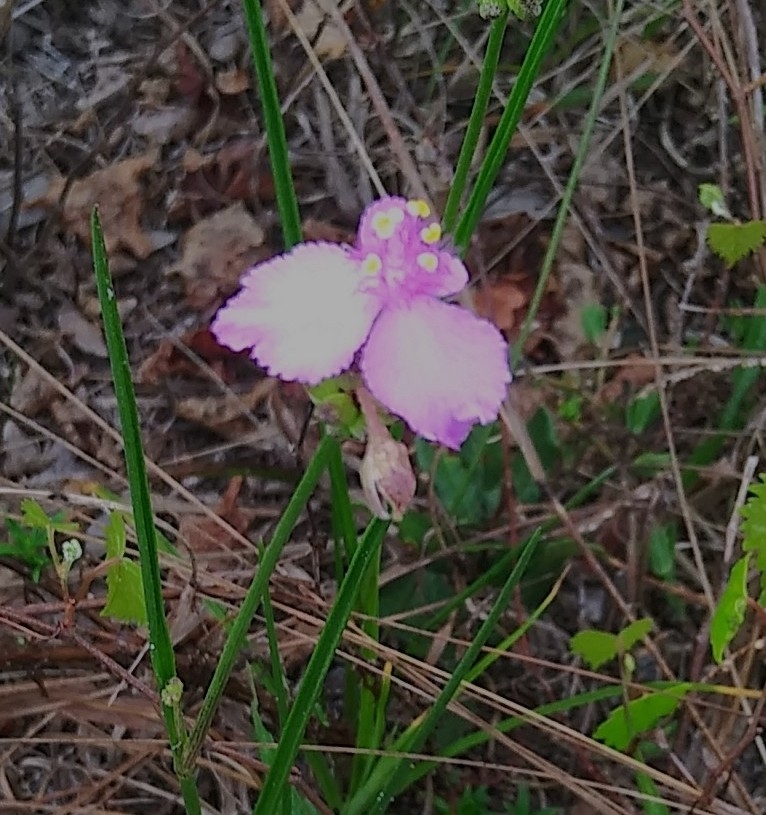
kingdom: Plantae
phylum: Tracheophyta
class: Liliopsida
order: Commelinales
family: Commelinaceae
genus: Callisia
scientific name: Callisia ornata
